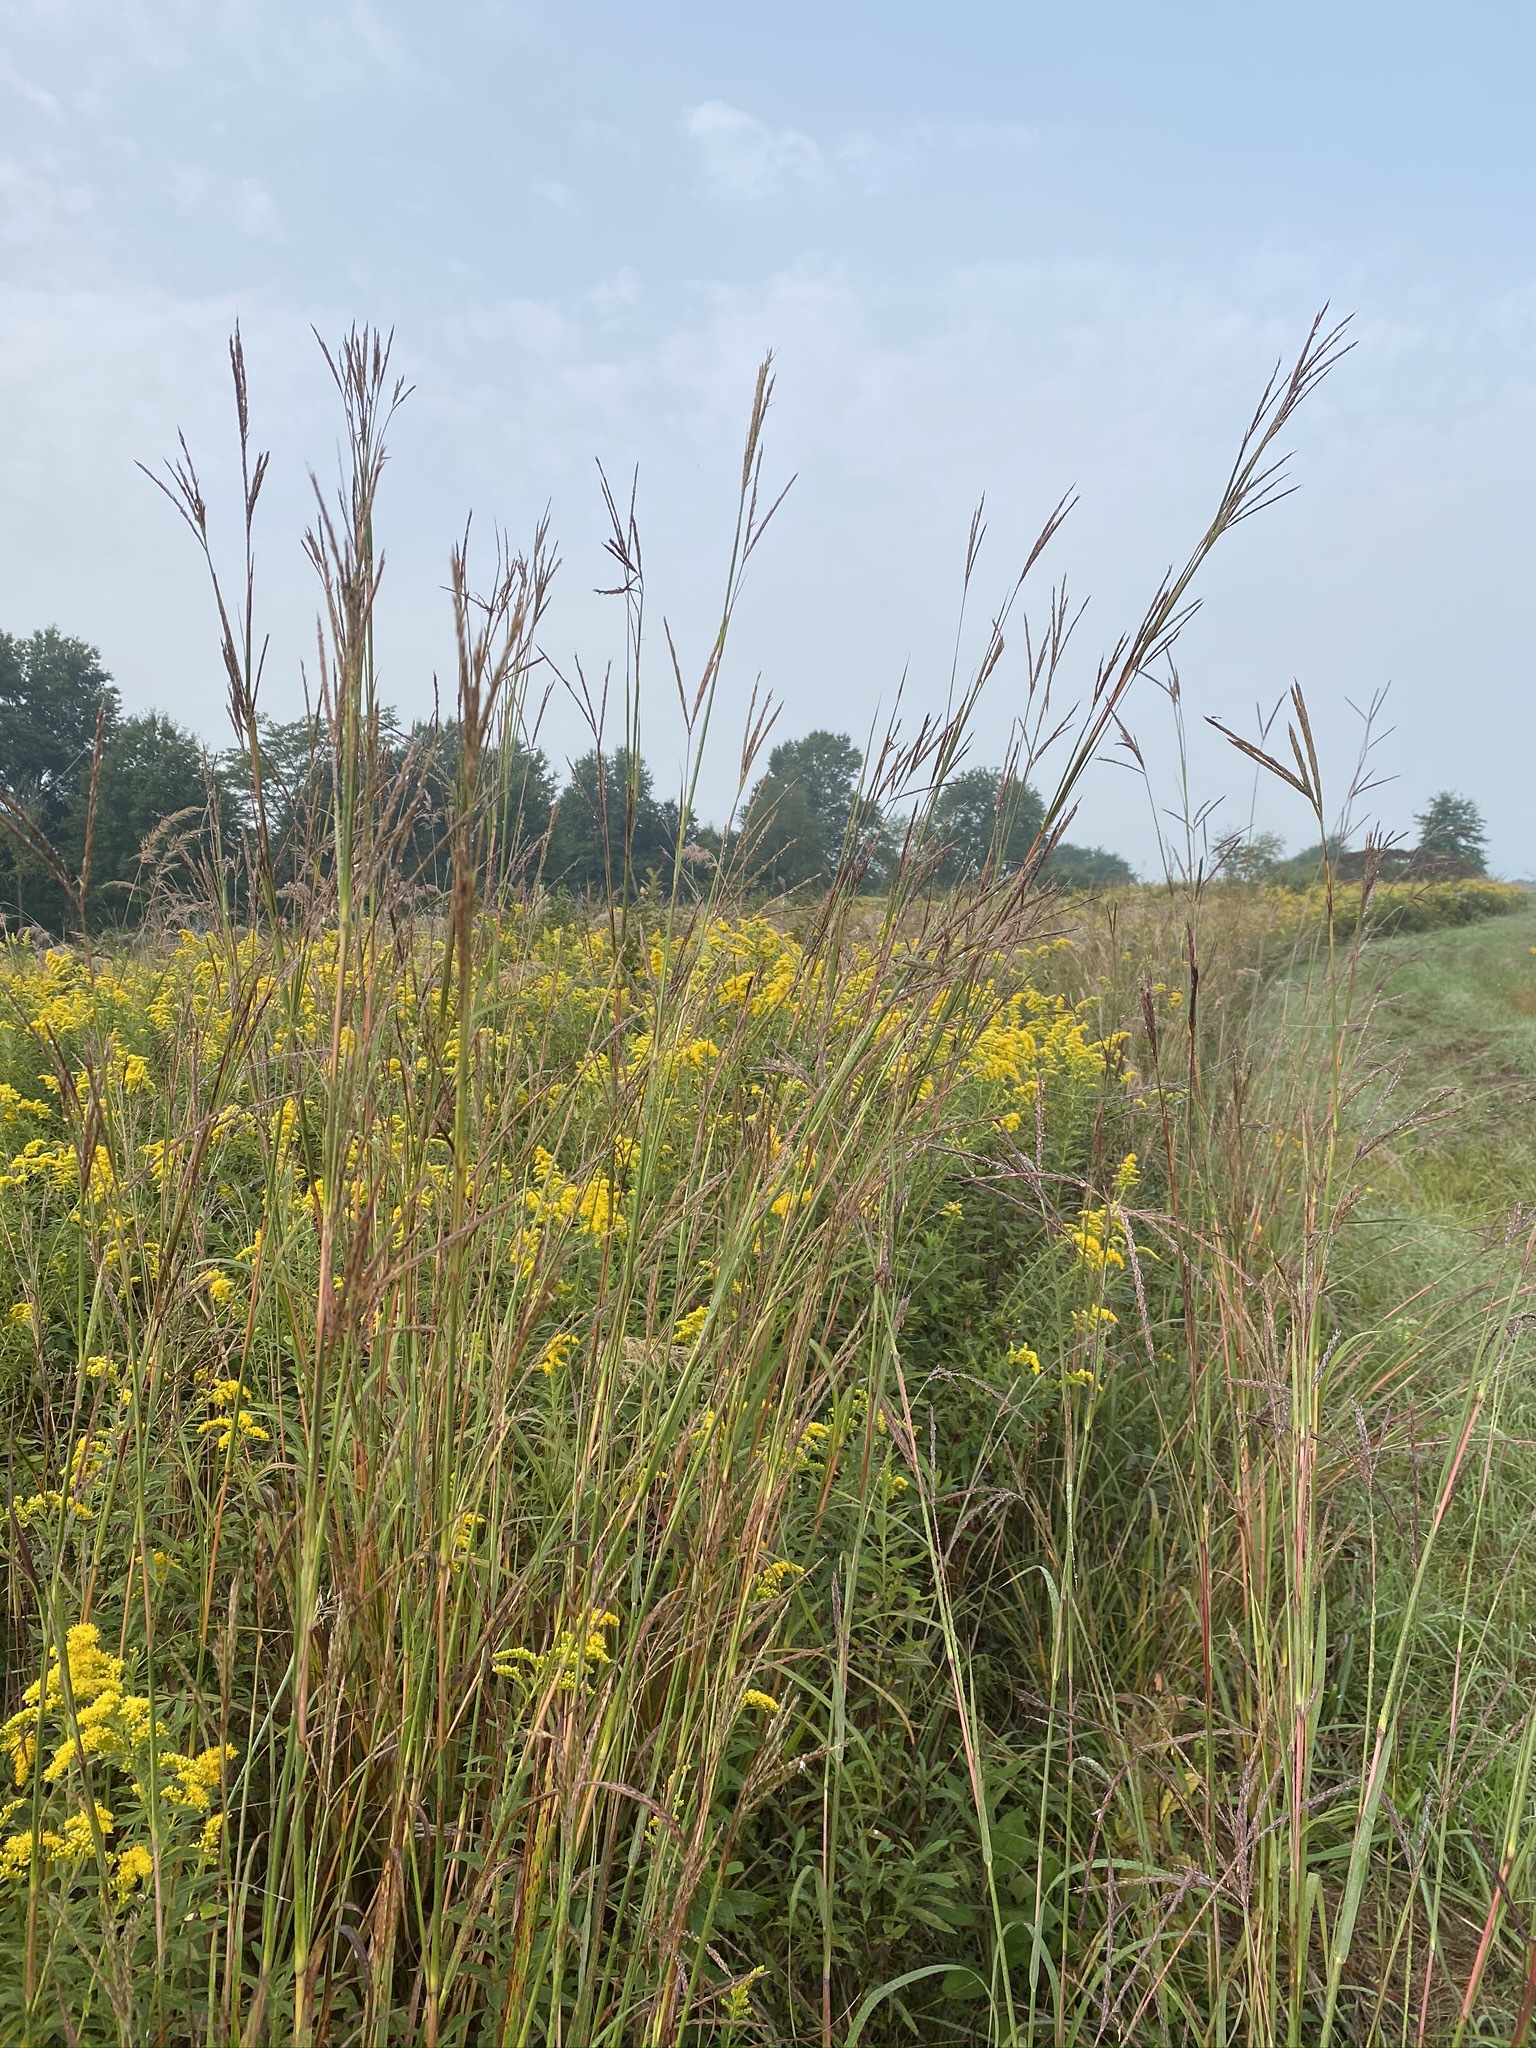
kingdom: Plantae
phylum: Tracheophyta
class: Liliopsida
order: Poales
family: Poaceae
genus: Andropogon
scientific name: Andropogon gerardi
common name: Big bluestem
